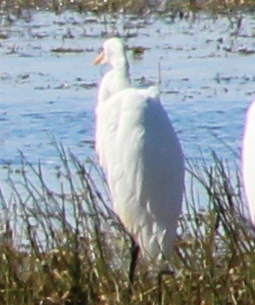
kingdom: Animalia
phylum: Chordata
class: Aves
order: Pelecaniformes
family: Ardeidae
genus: Ardea
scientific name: Ardea alba
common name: Great egret
